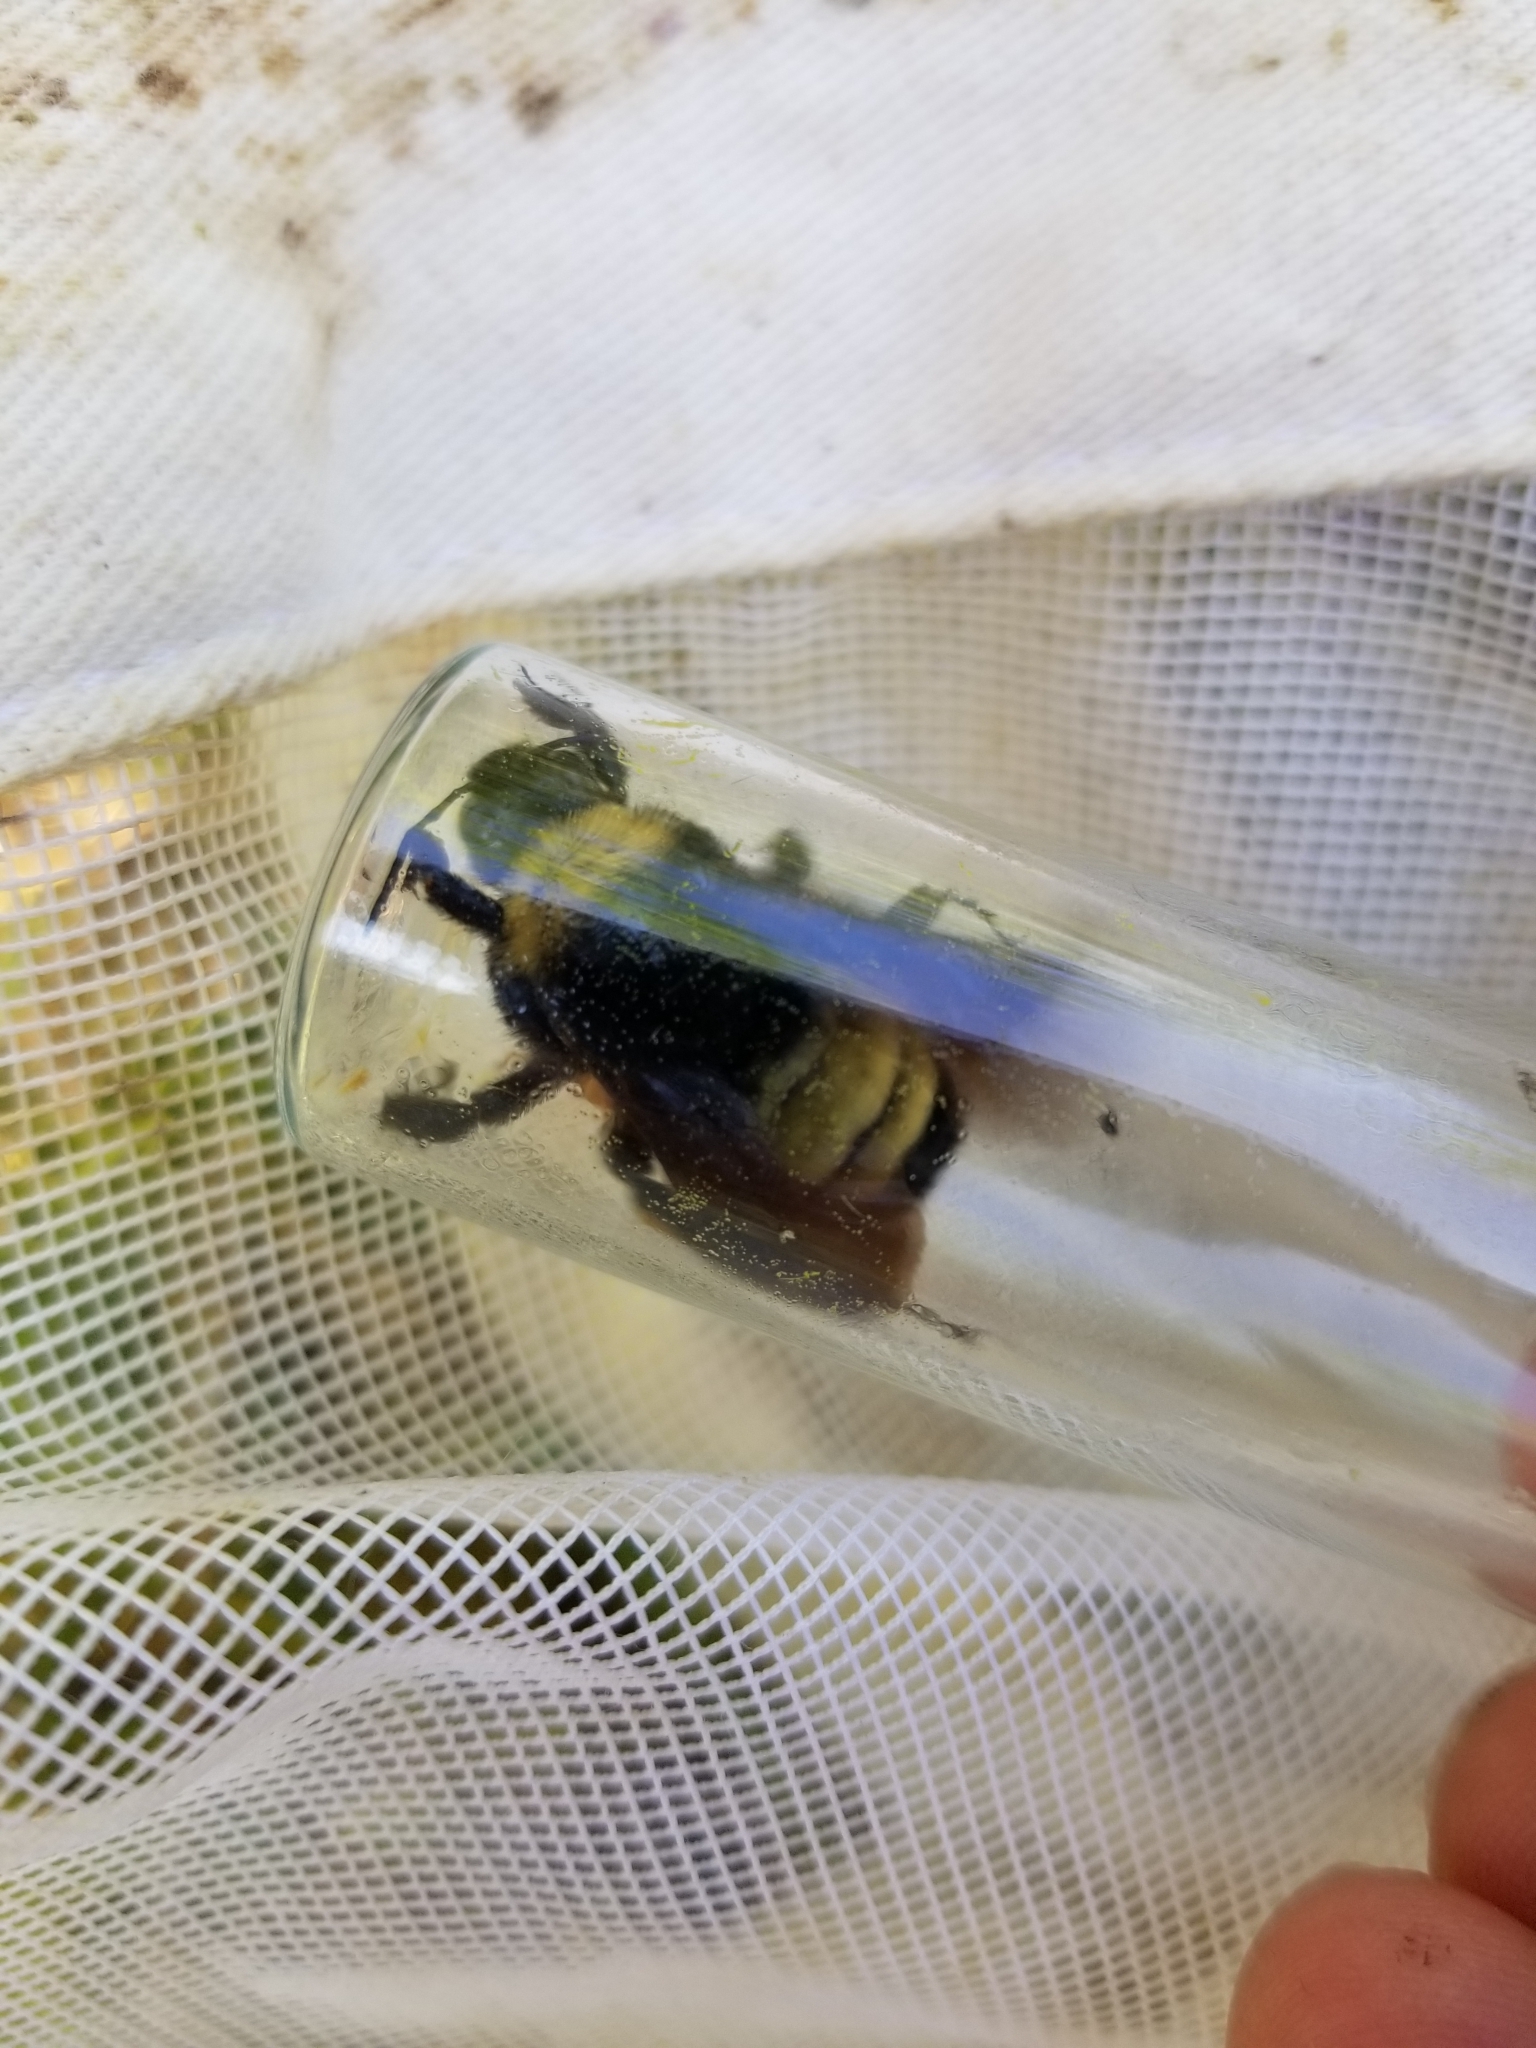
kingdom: Animalia
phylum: Arthropoda
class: Insecta
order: Hymenoptera
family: Apidae
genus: Bombus
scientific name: Bombus pensylvanicus
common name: Bumble bee
